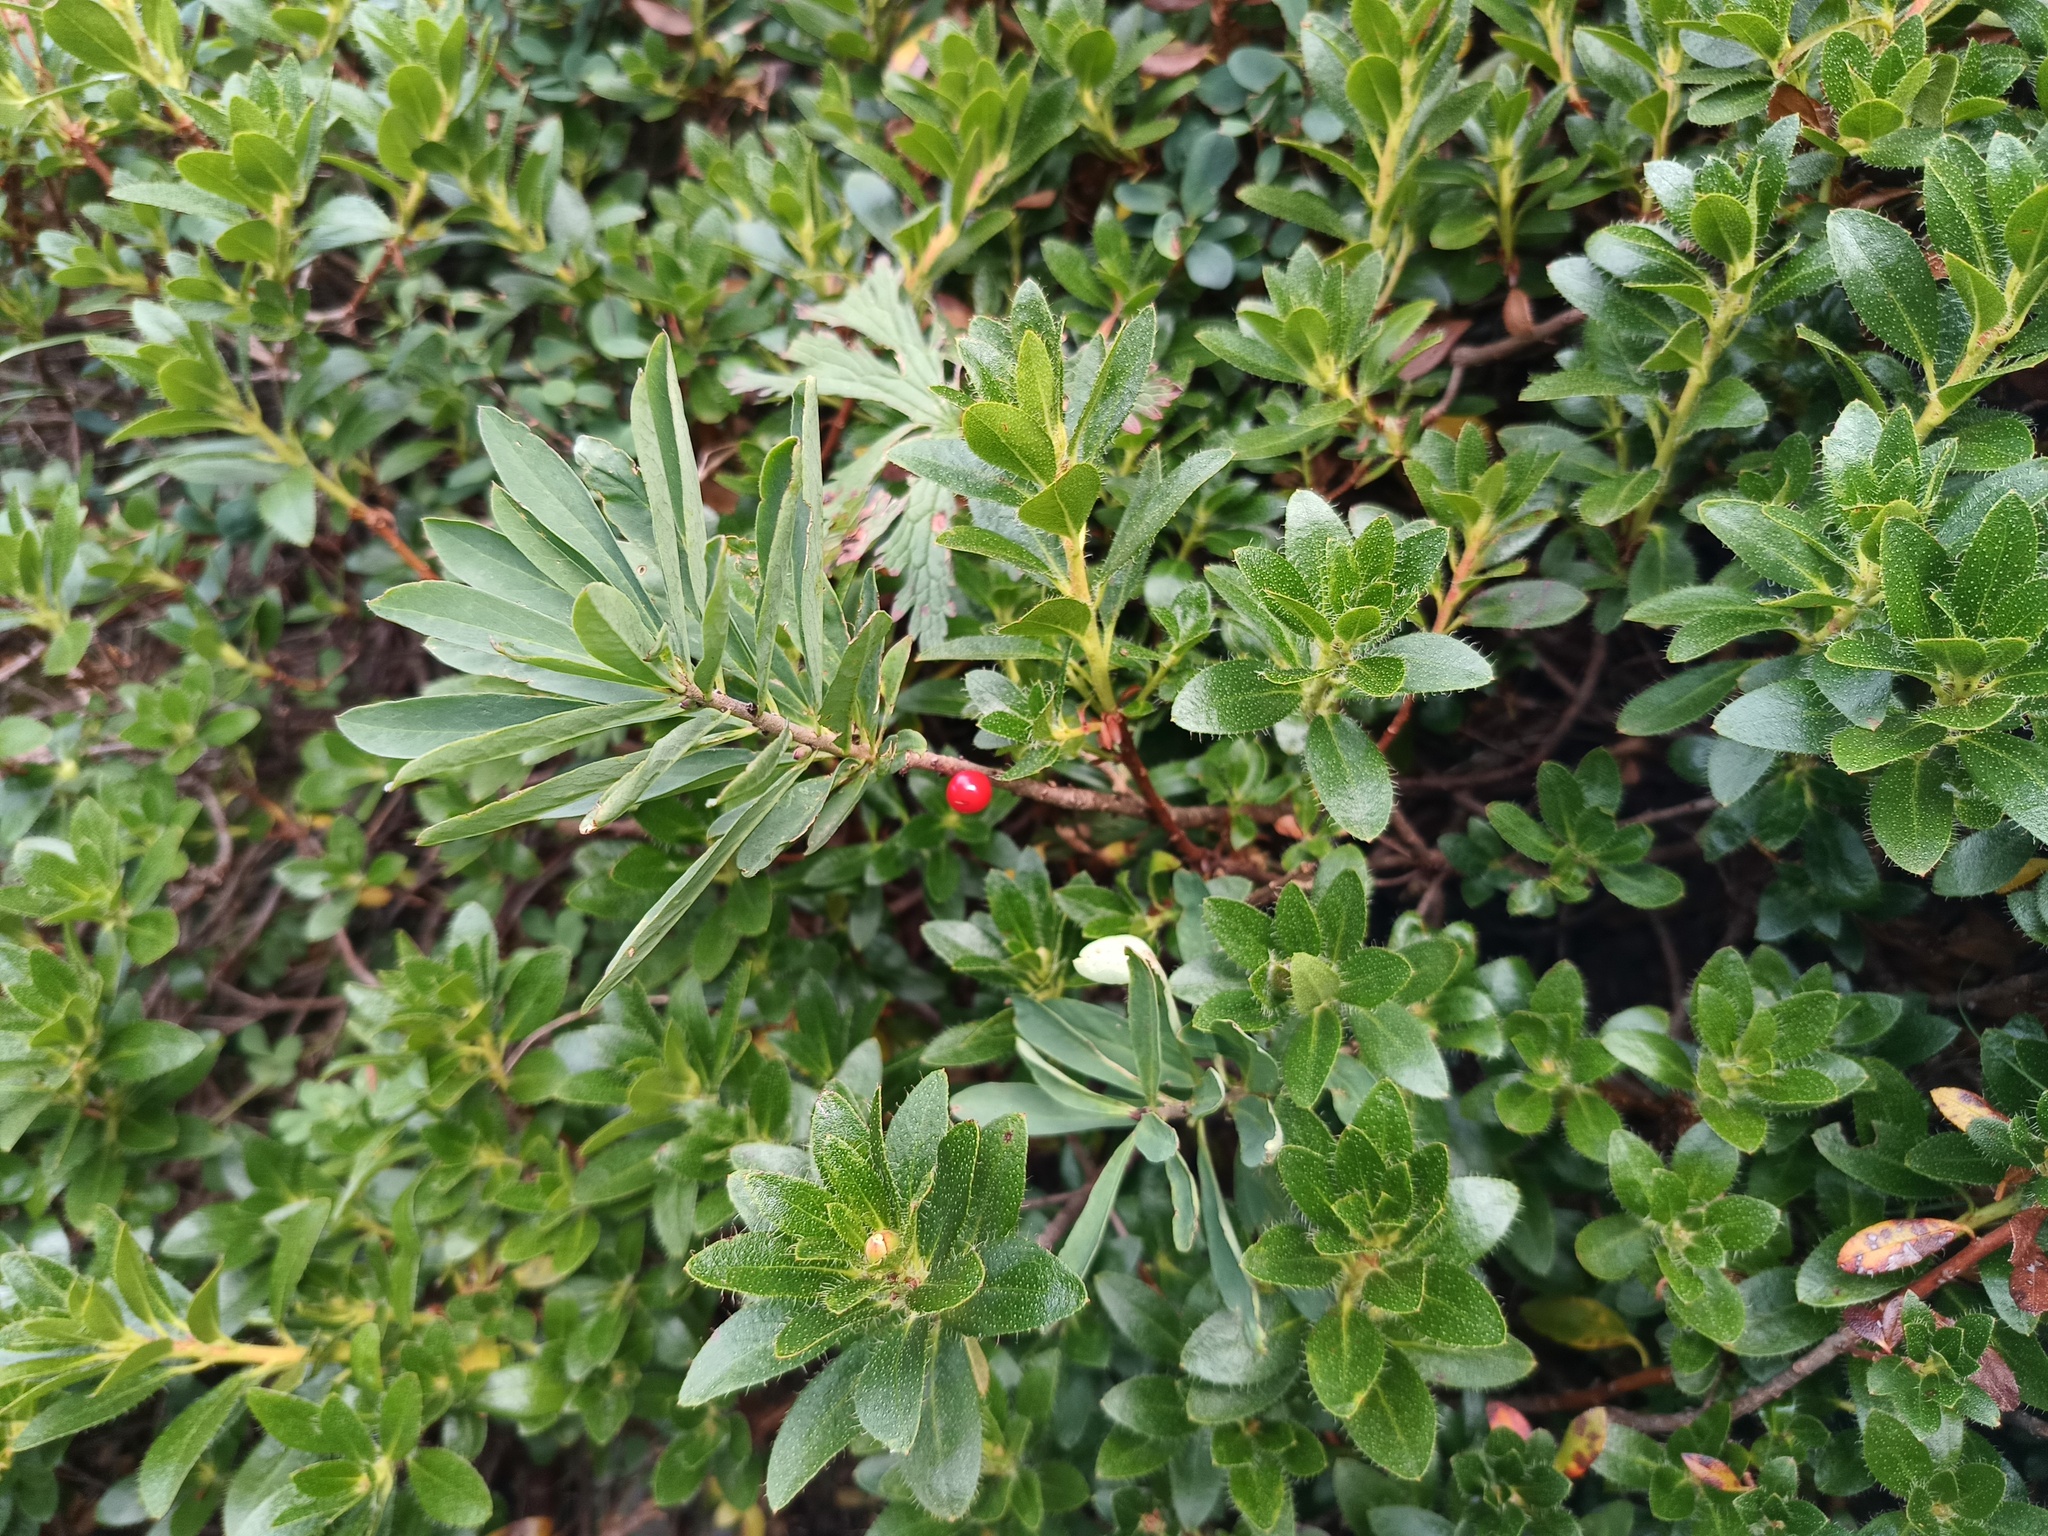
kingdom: Plantae
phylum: Tracheophyta
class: Magnoliopsida
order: Ericales
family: Ericaceae
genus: Rhododendron
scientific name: Rhododendron hirsutum
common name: Hairy alpenrose
